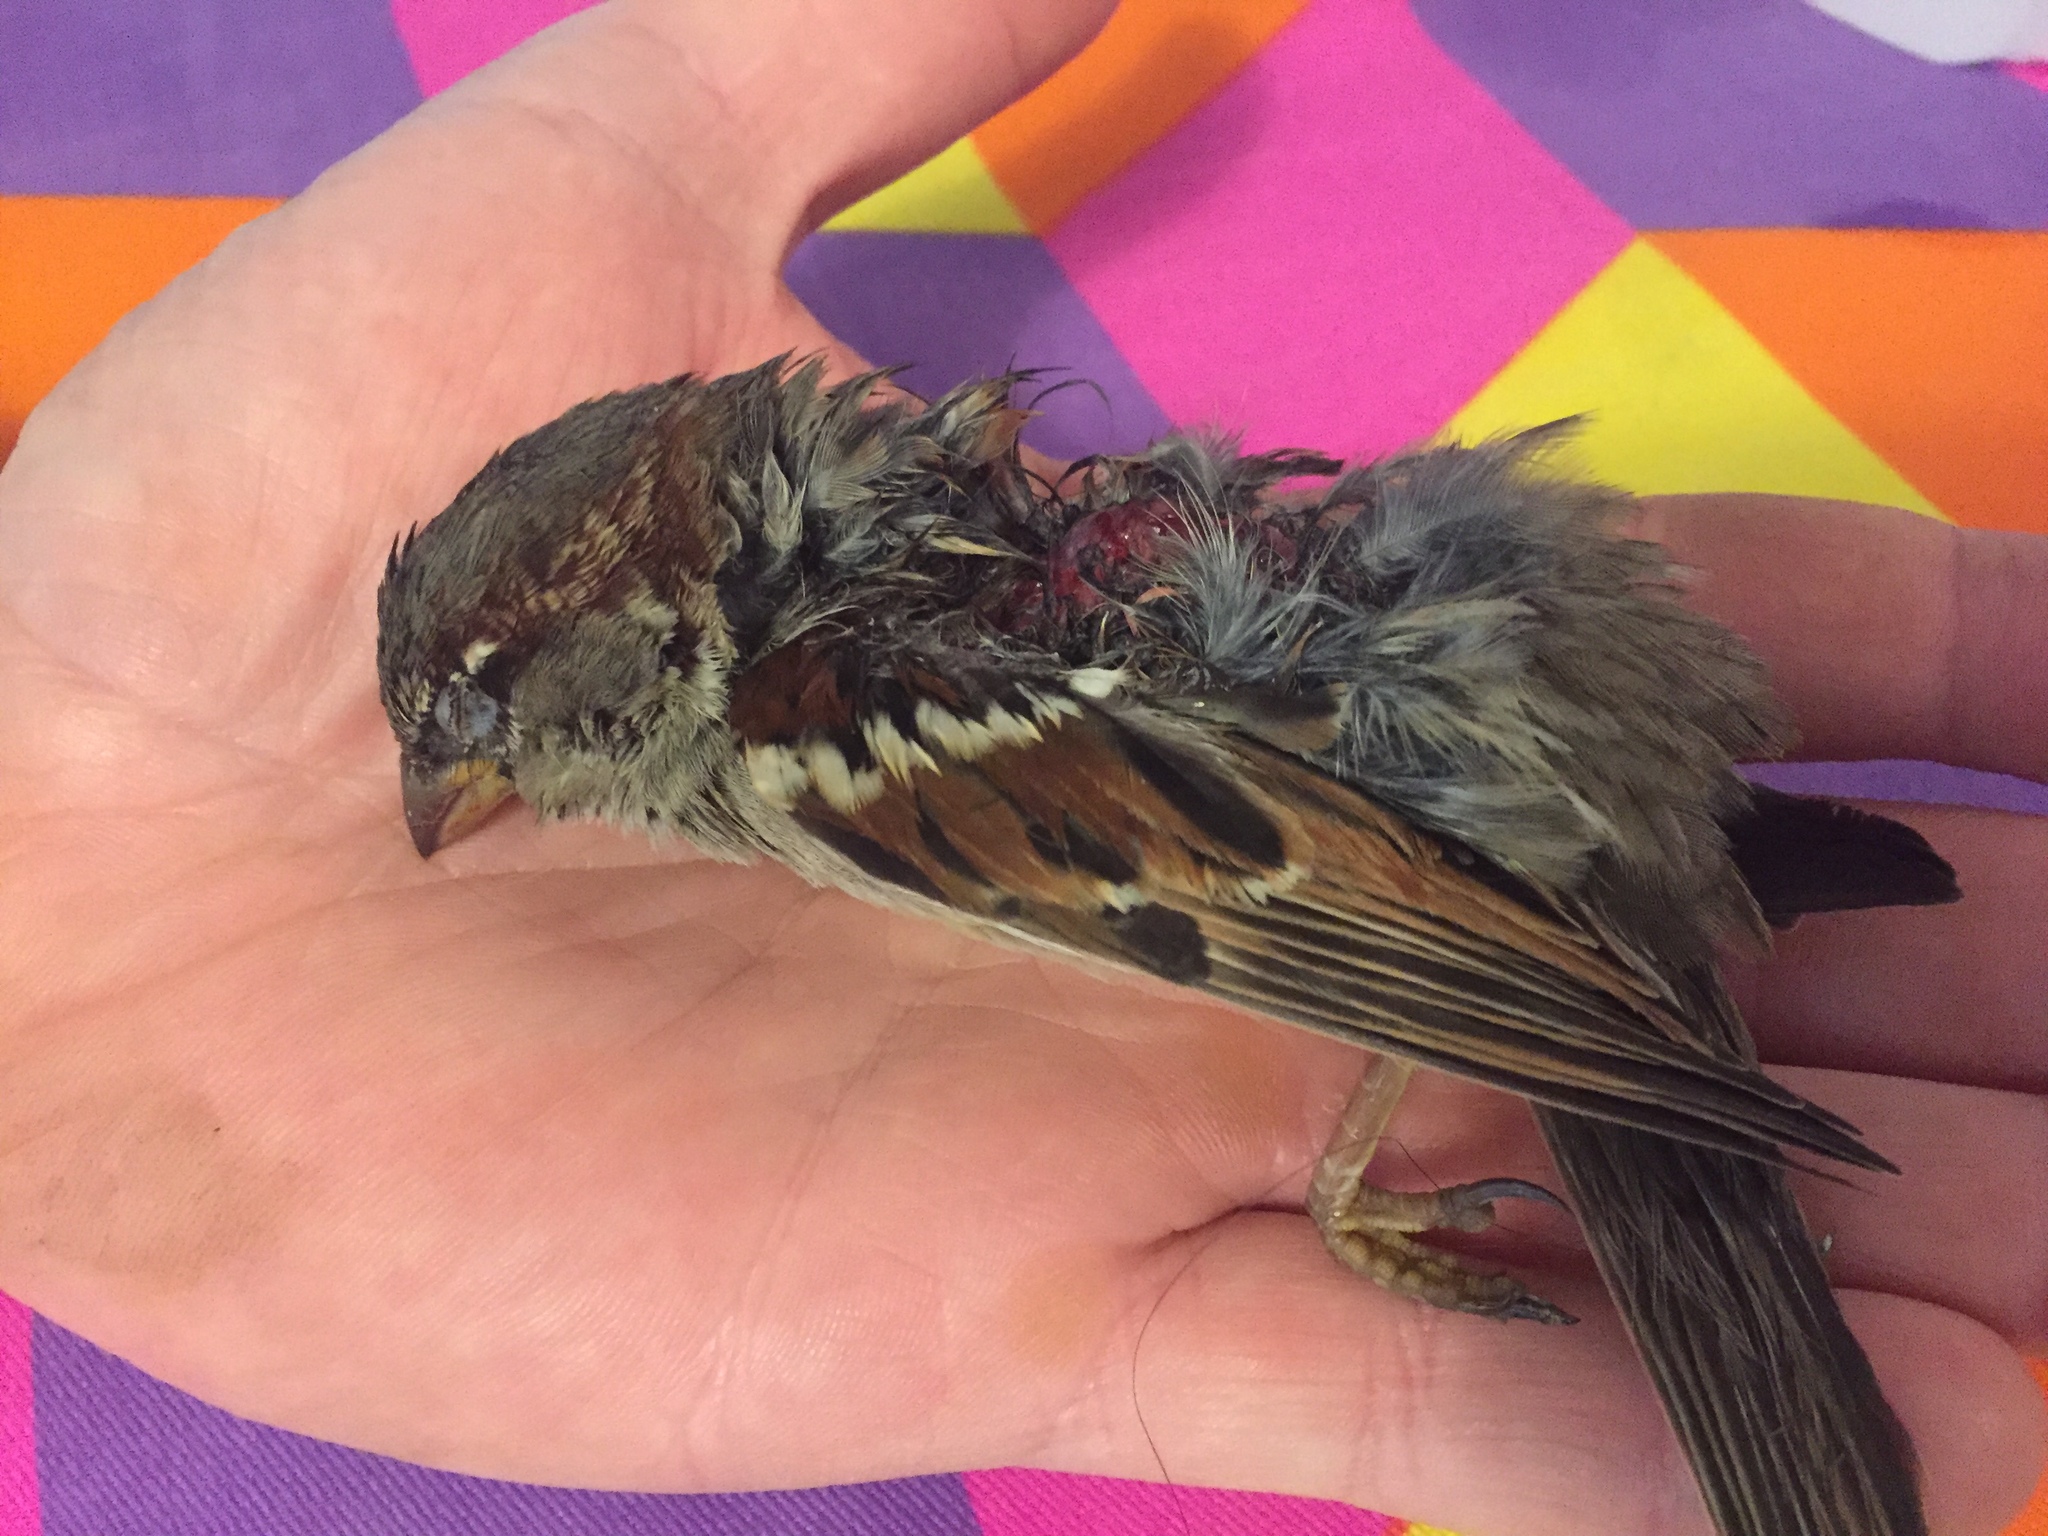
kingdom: Animalia
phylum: Chordata
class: Aves
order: Passeriformes
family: Passeridae
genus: Passer
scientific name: Passer domesticus
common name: House sparrow
